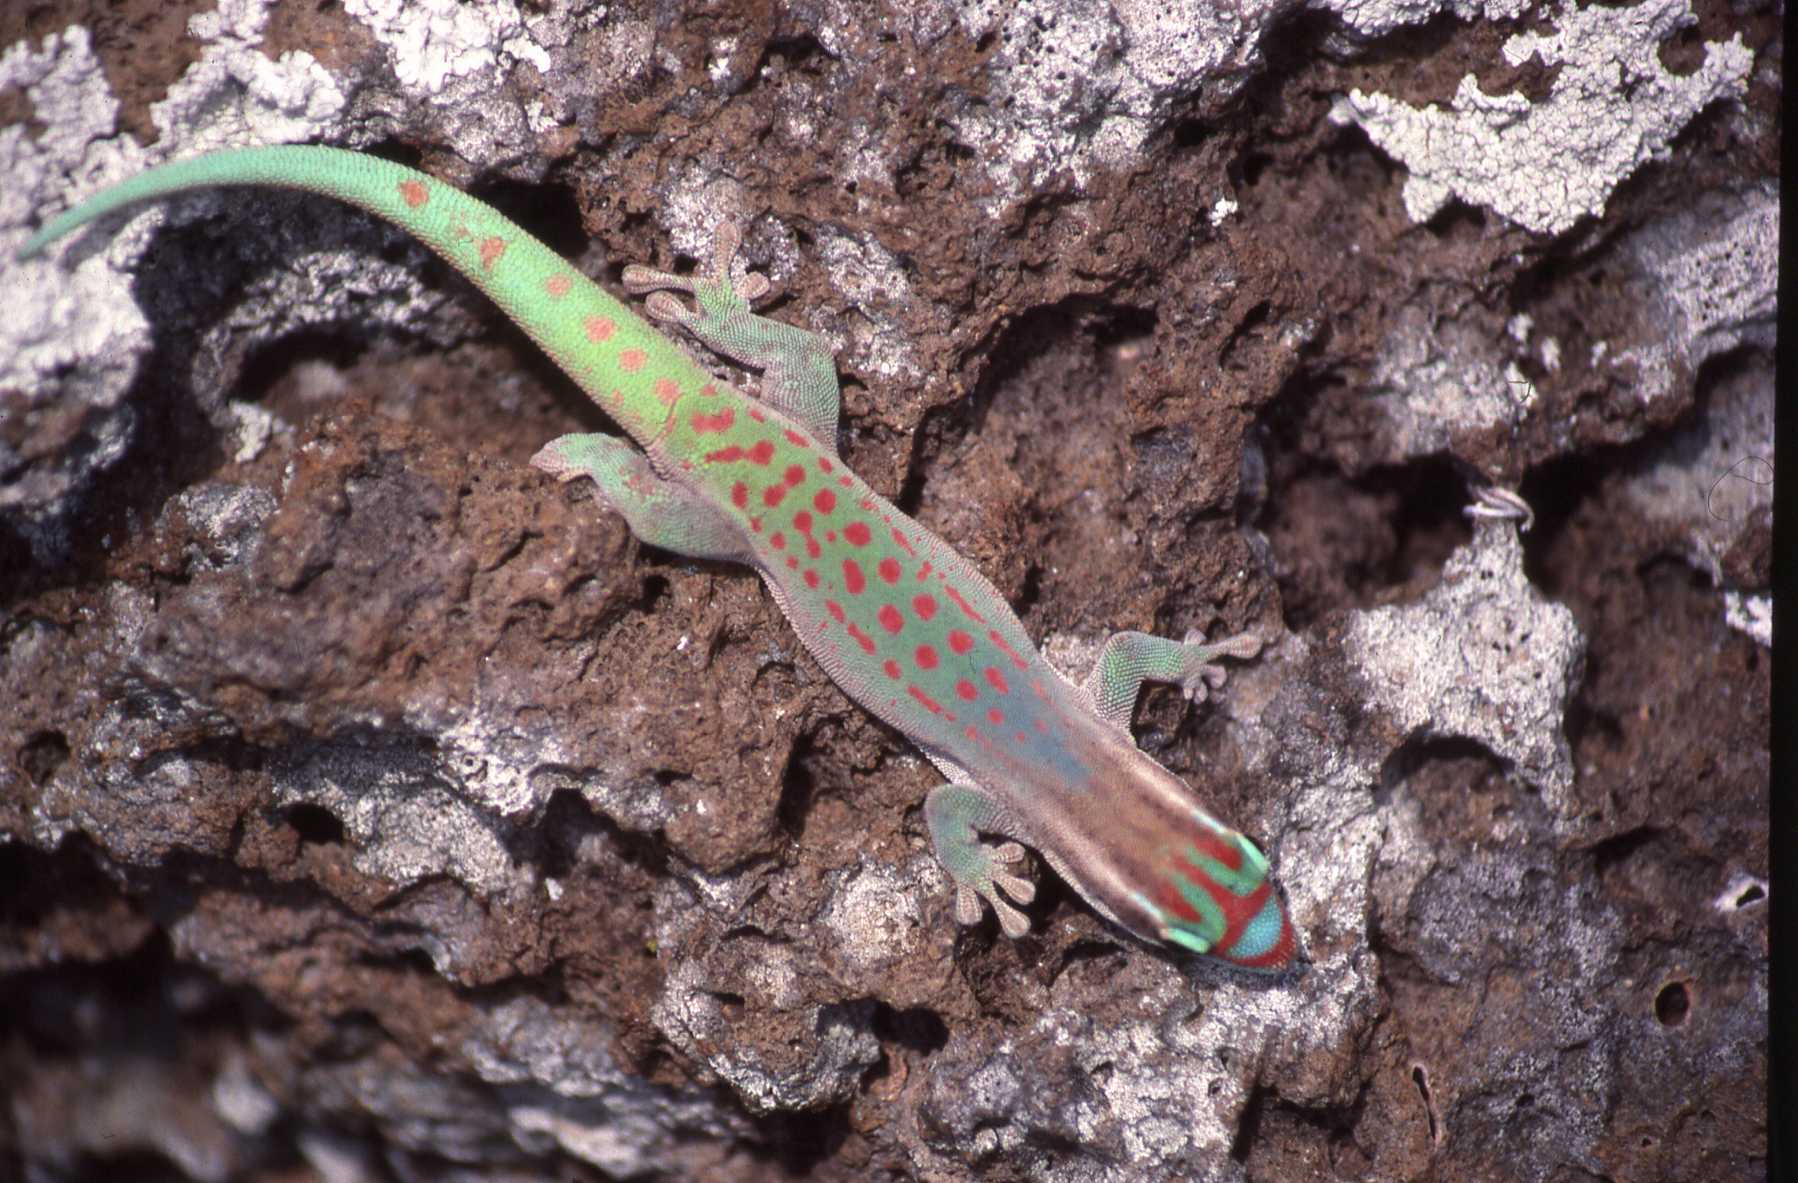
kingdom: Animalia
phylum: Chordata
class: Squamata
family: Gekkonidae
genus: Phelsuma
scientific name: Phelsuma ornata
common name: Ornate day gecko
